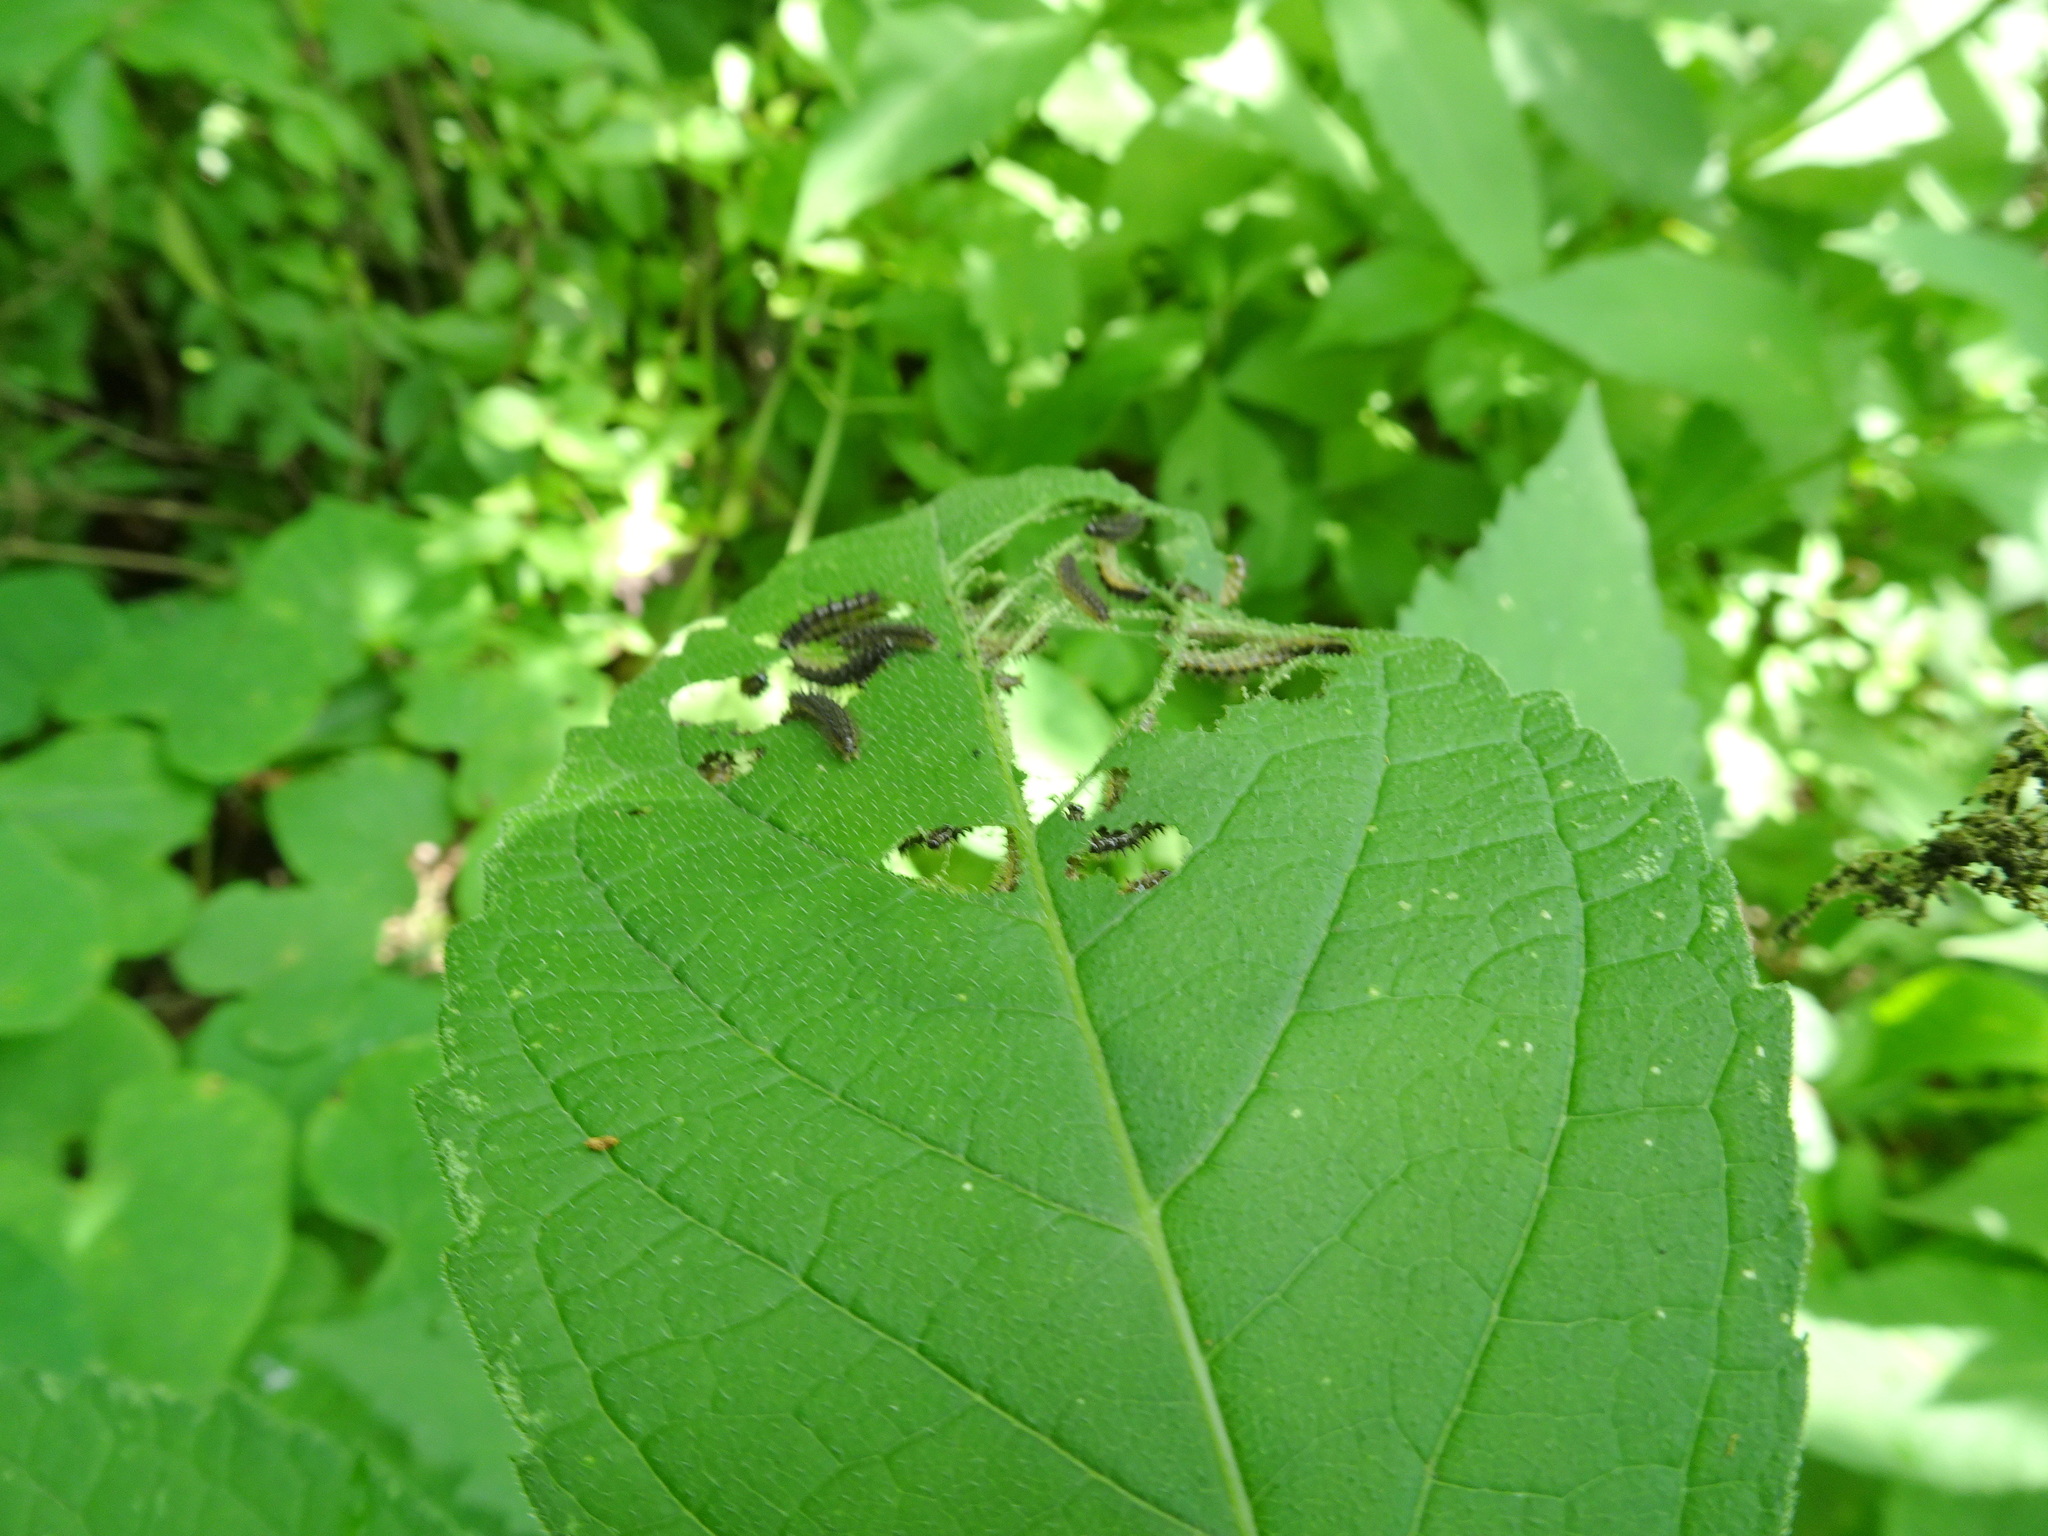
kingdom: Animalia
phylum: Arthropoda
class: Insecta
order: Lepidoptera
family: Nymphalidae
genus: Chlosyne
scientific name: Chlosyne nycteis
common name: Silvery checkerspot
